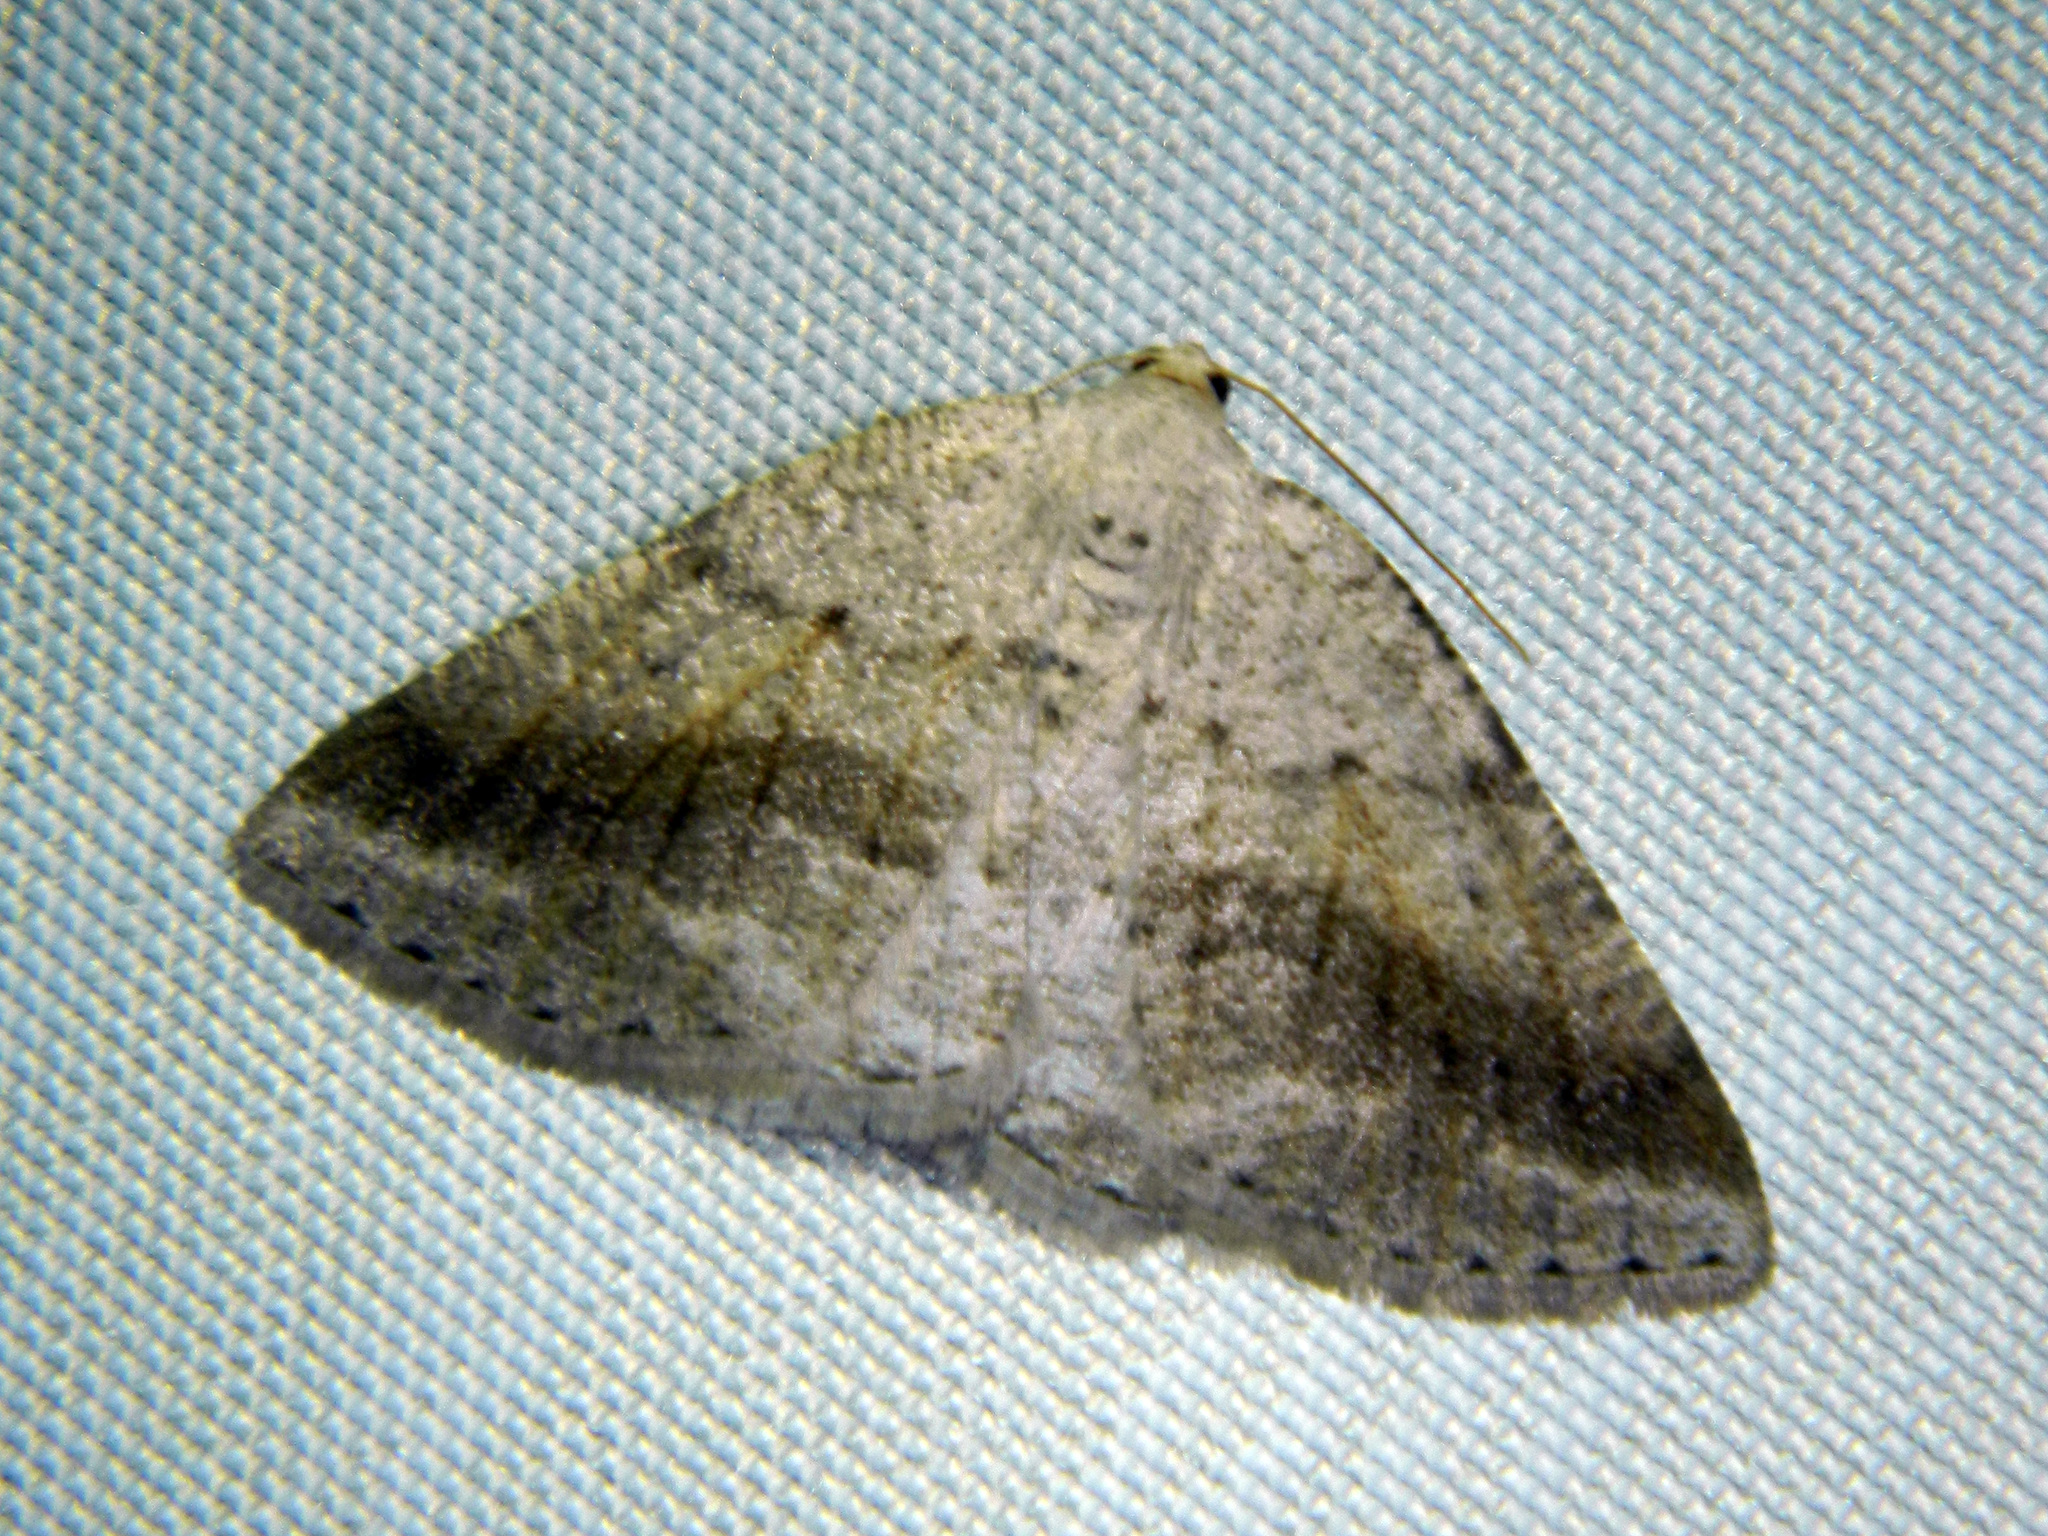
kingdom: Animalia
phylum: Arthropoda
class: Insecta
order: Lepidoptera
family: Geometridae
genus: Tacparia
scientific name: Tacparia detersata
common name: Pale alder moth
